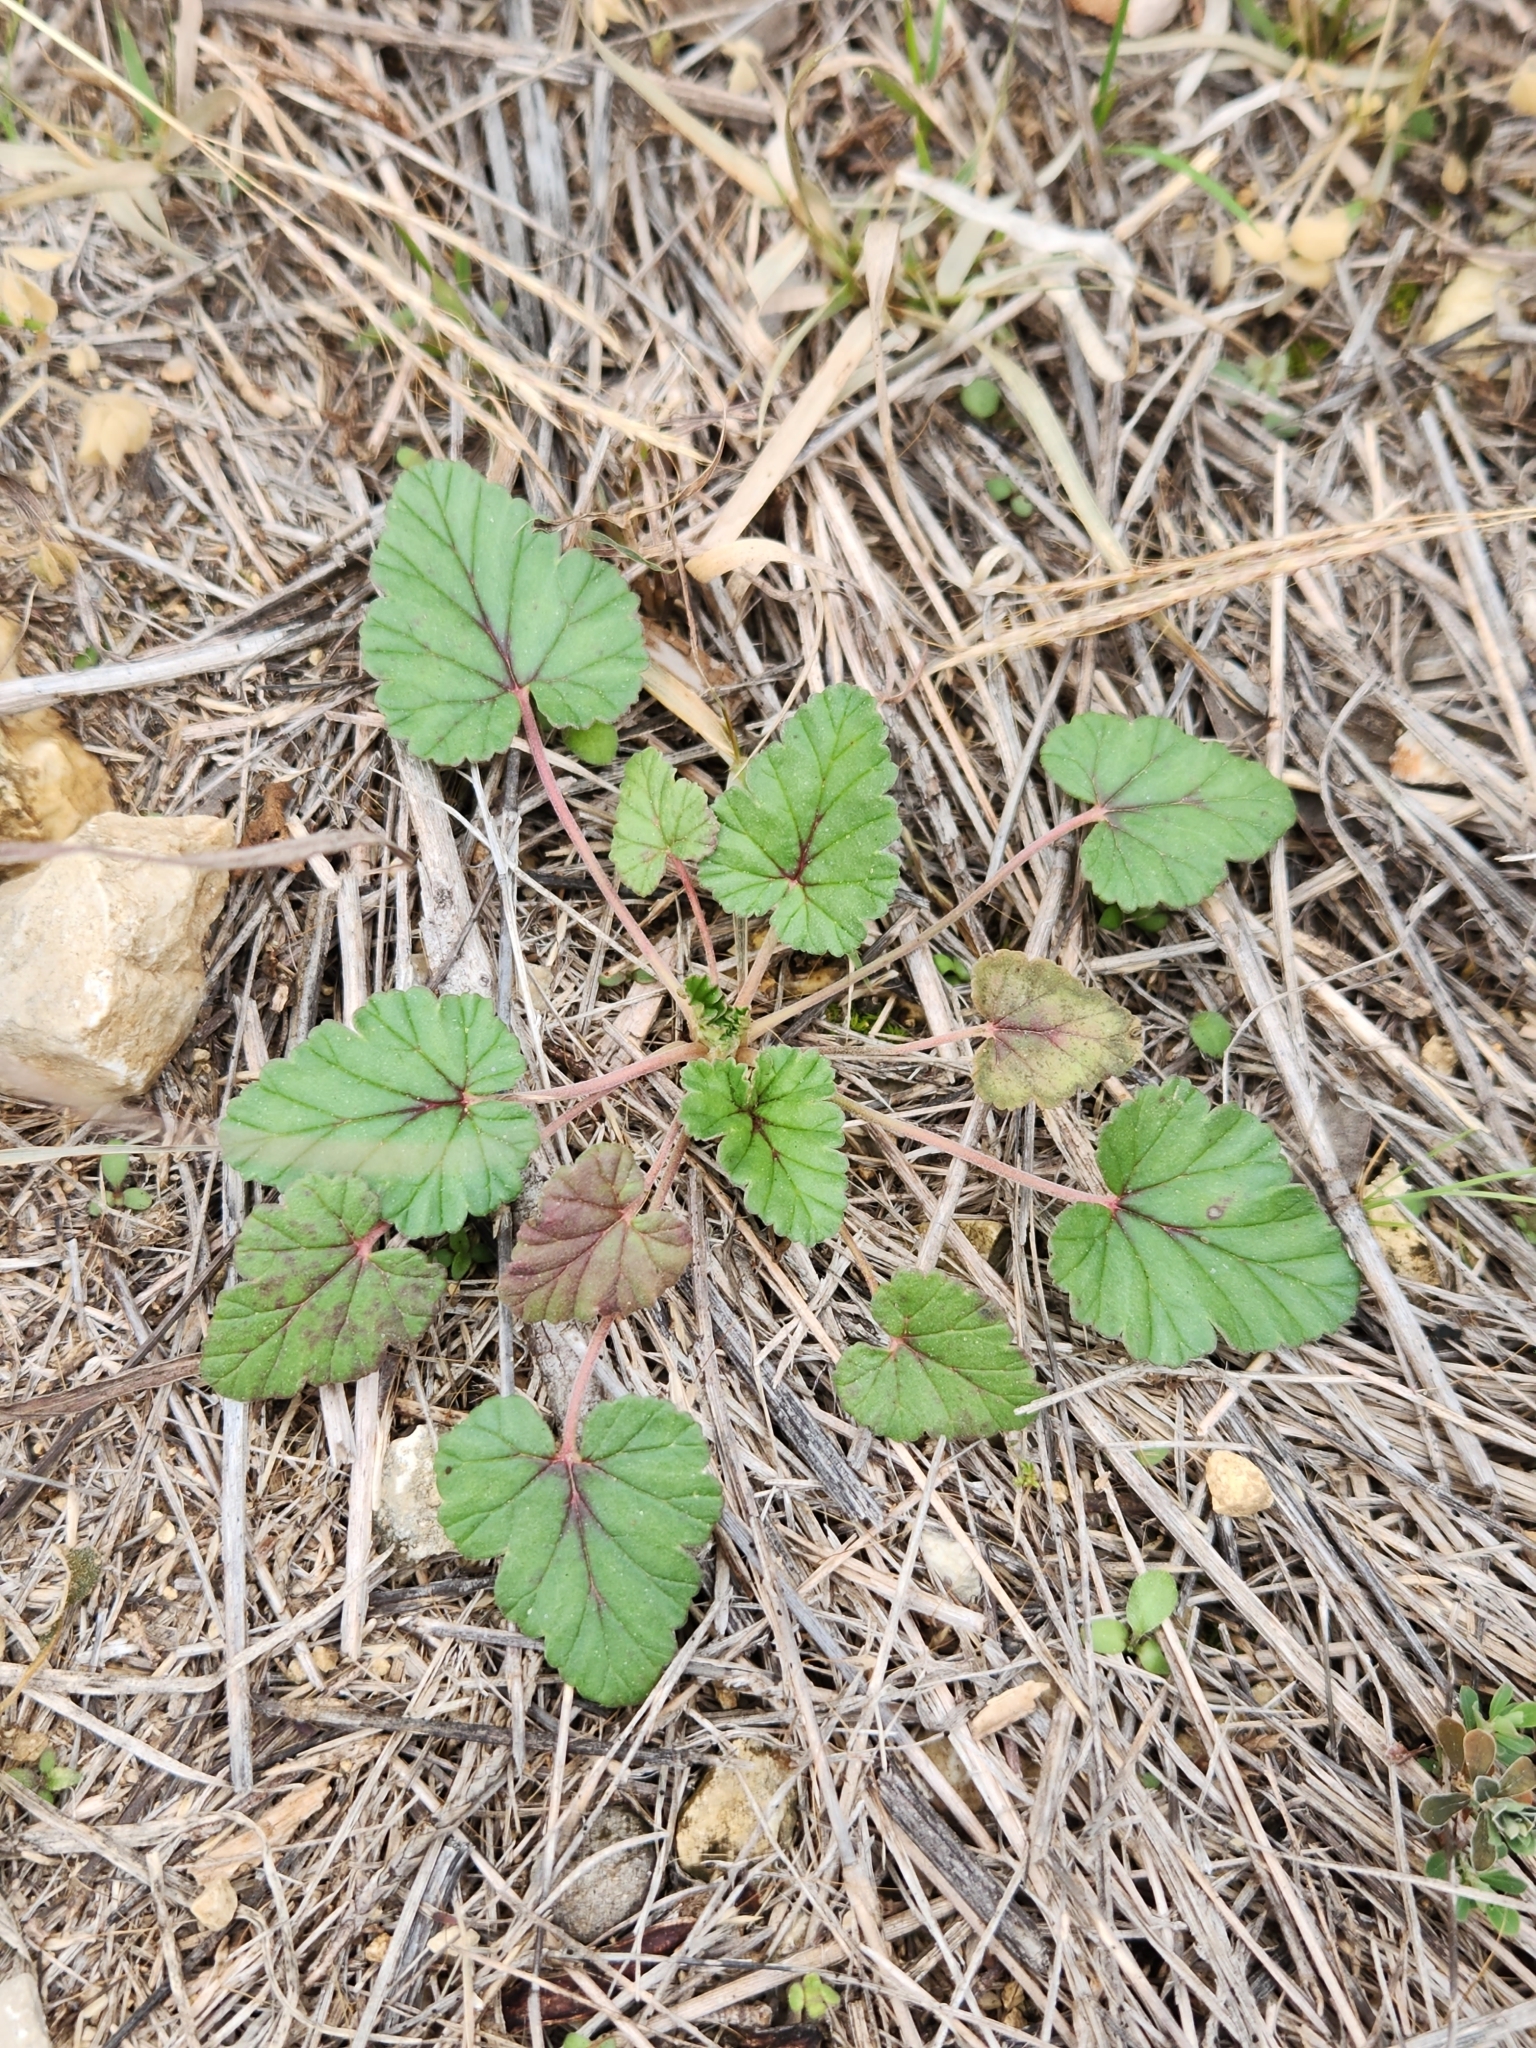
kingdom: Plantae
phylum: Tracheophyta
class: Magnoliopsida
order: Geraniales
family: Geraniaceae
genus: Erodium
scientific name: Erodium texanum
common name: Texas stork's-bill
